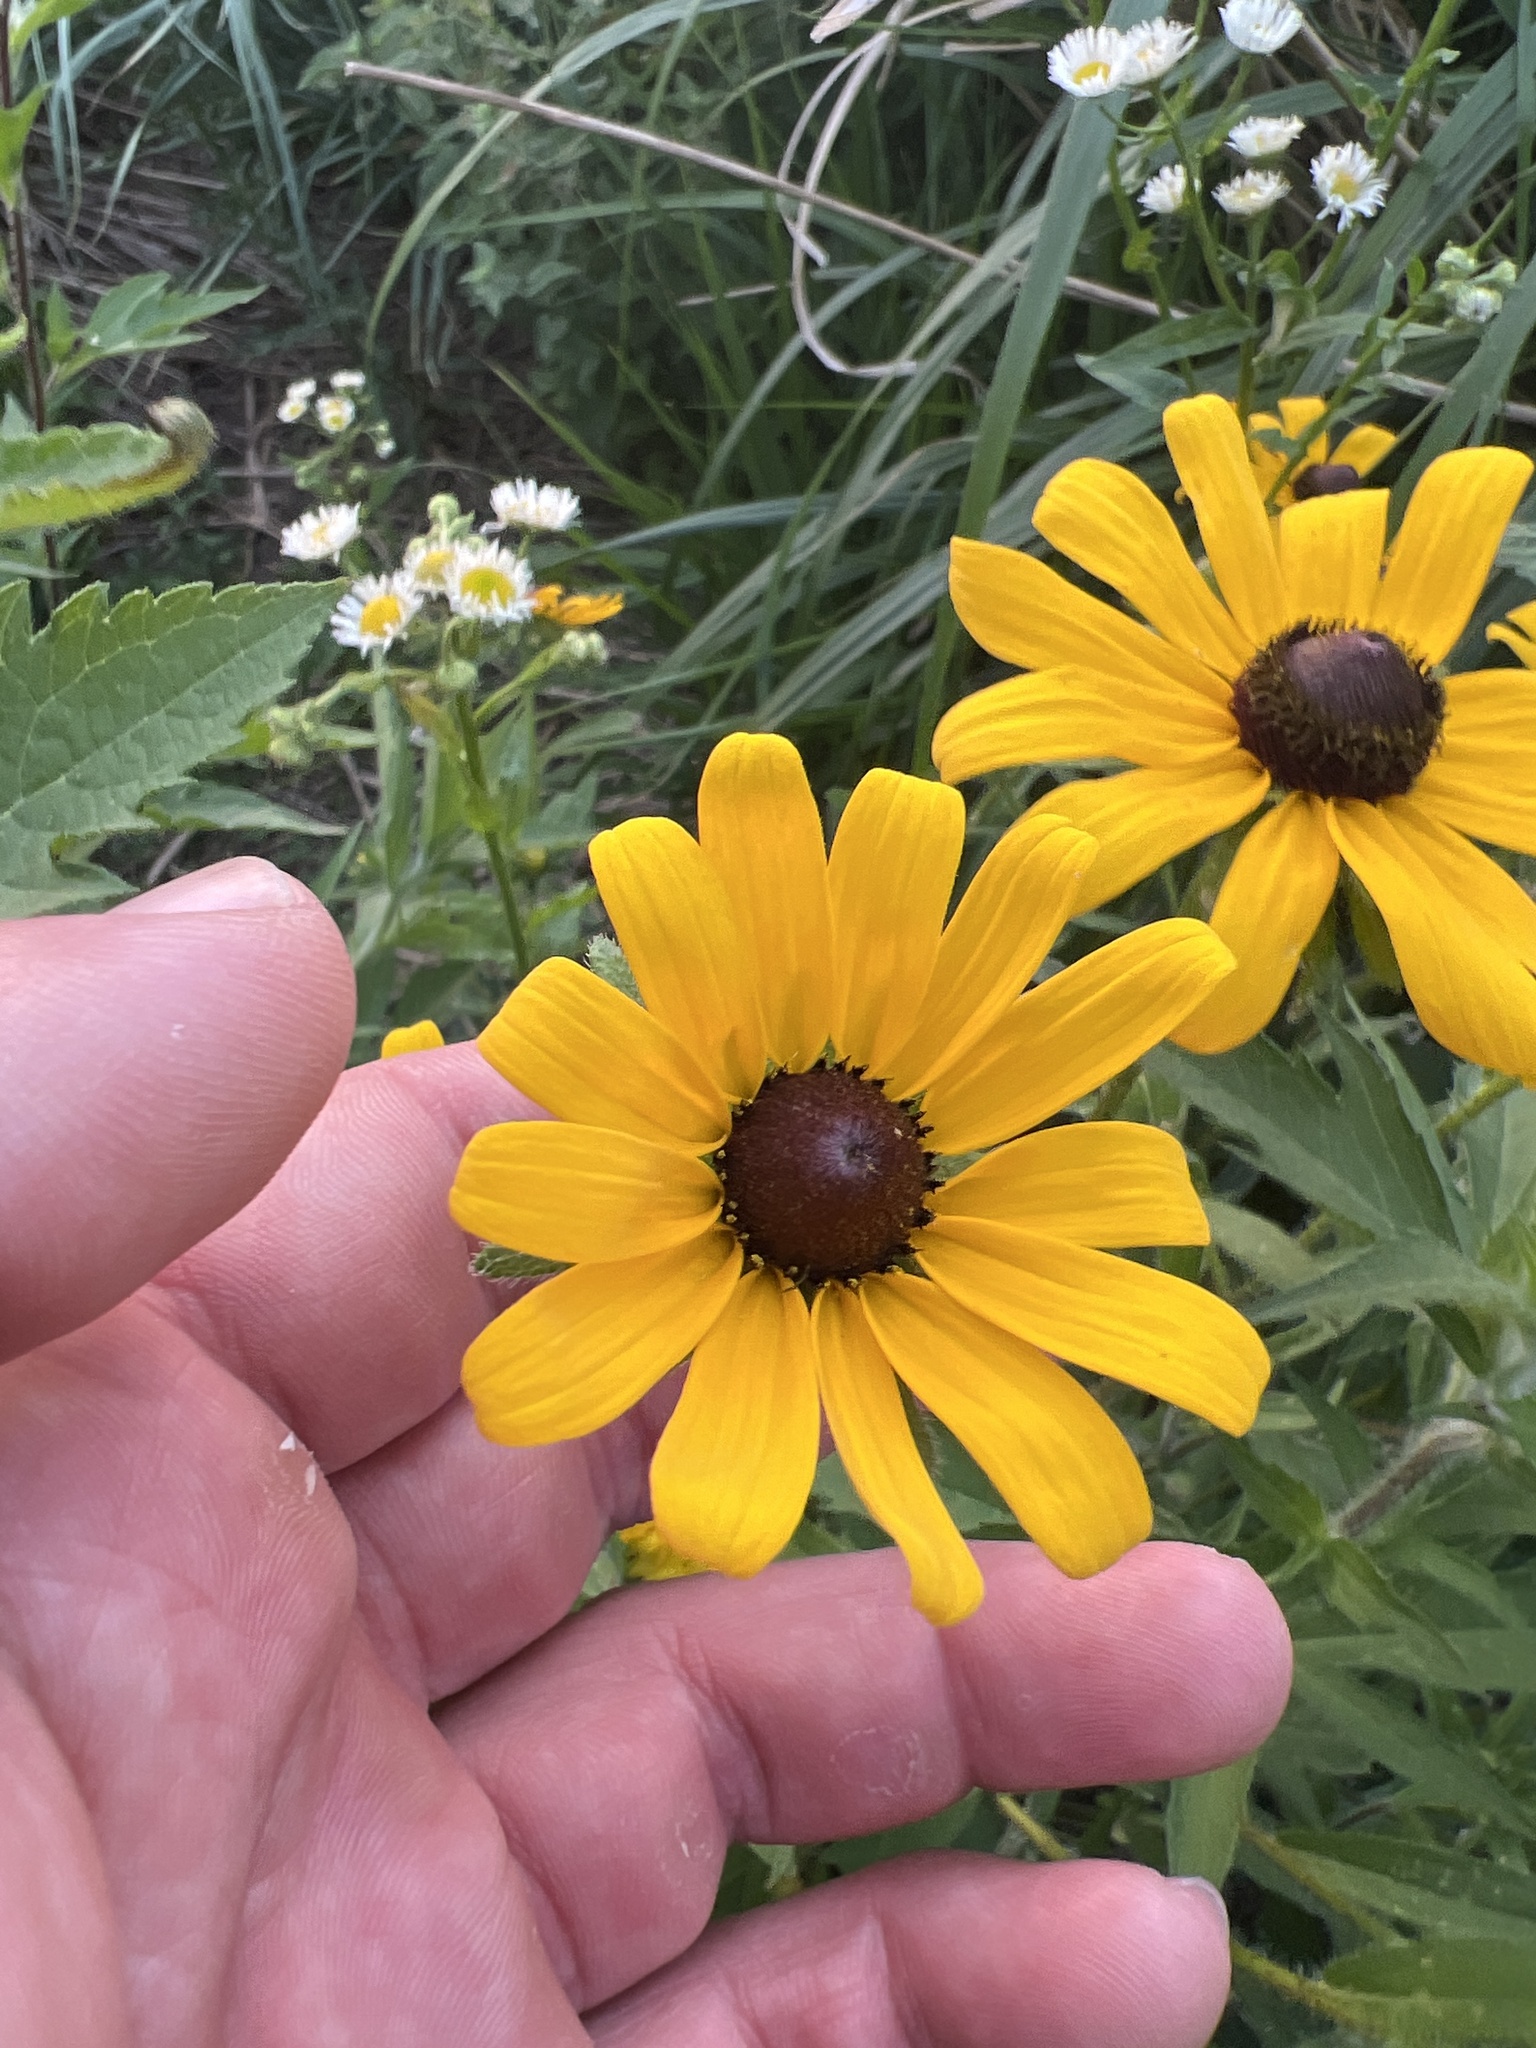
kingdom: Plantae
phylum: Tracheophyta
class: Magnoliopsida
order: Asterales
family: Asteraceae
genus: Rudbeckia
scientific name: Rudbeckia hirta
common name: Black-eyed-susan
